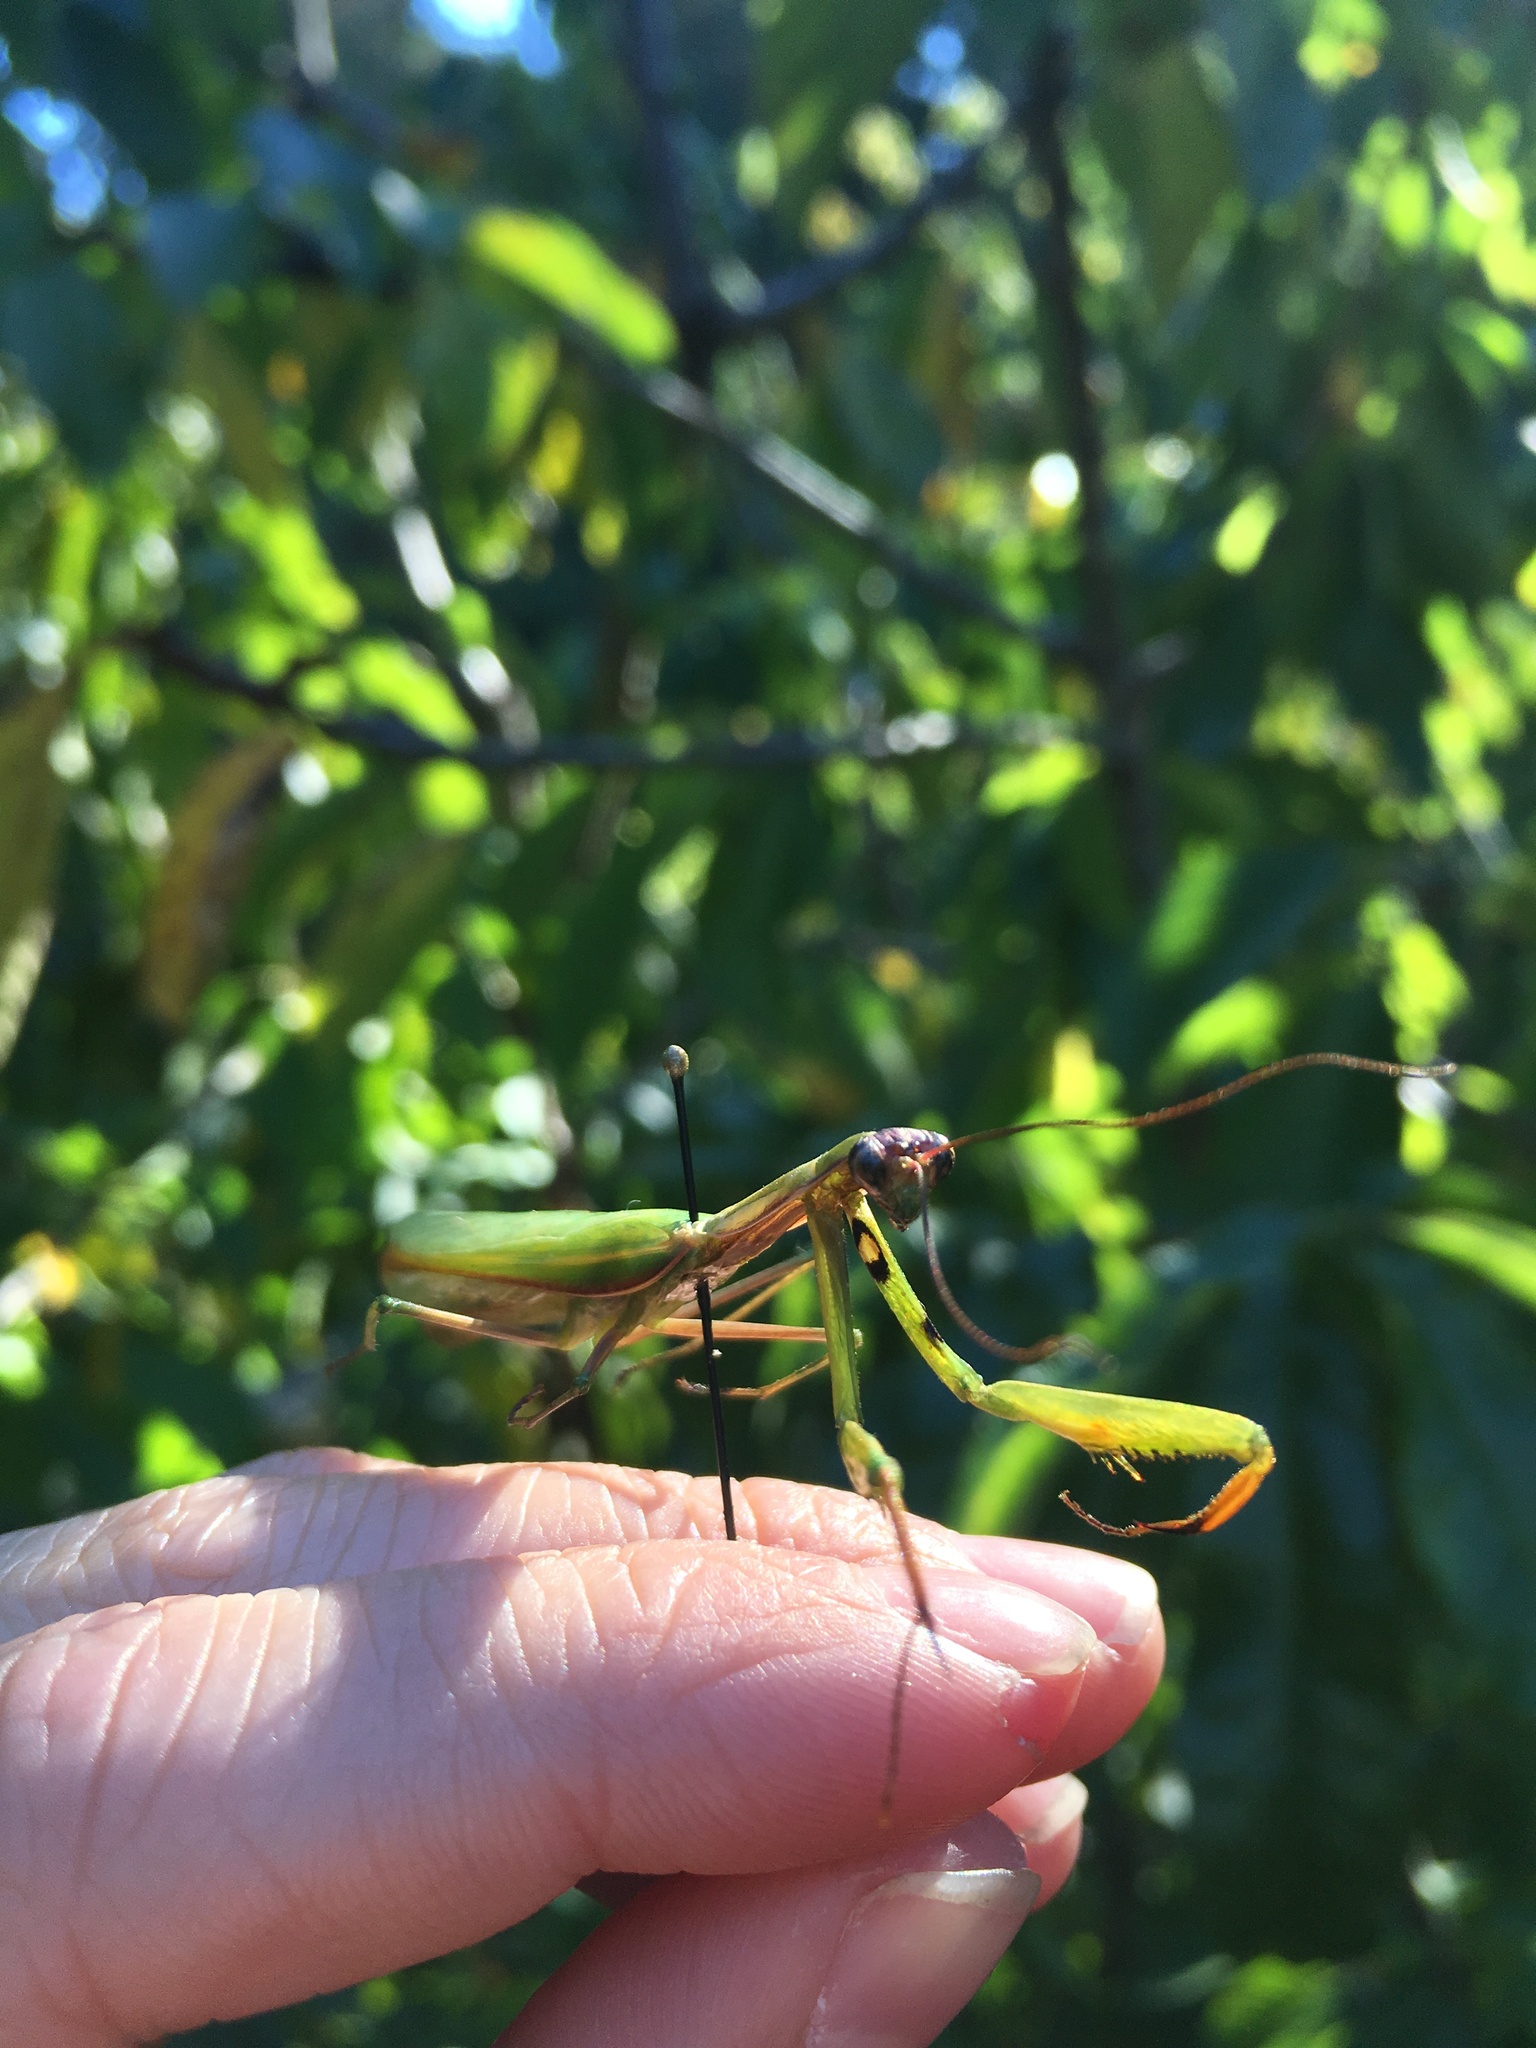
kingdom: Animalia
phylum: Arthropoda
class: Insecta
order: Mantodea
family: Mantidae
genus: Mantis
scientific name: Mantis religiosa
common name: Praying mantis
